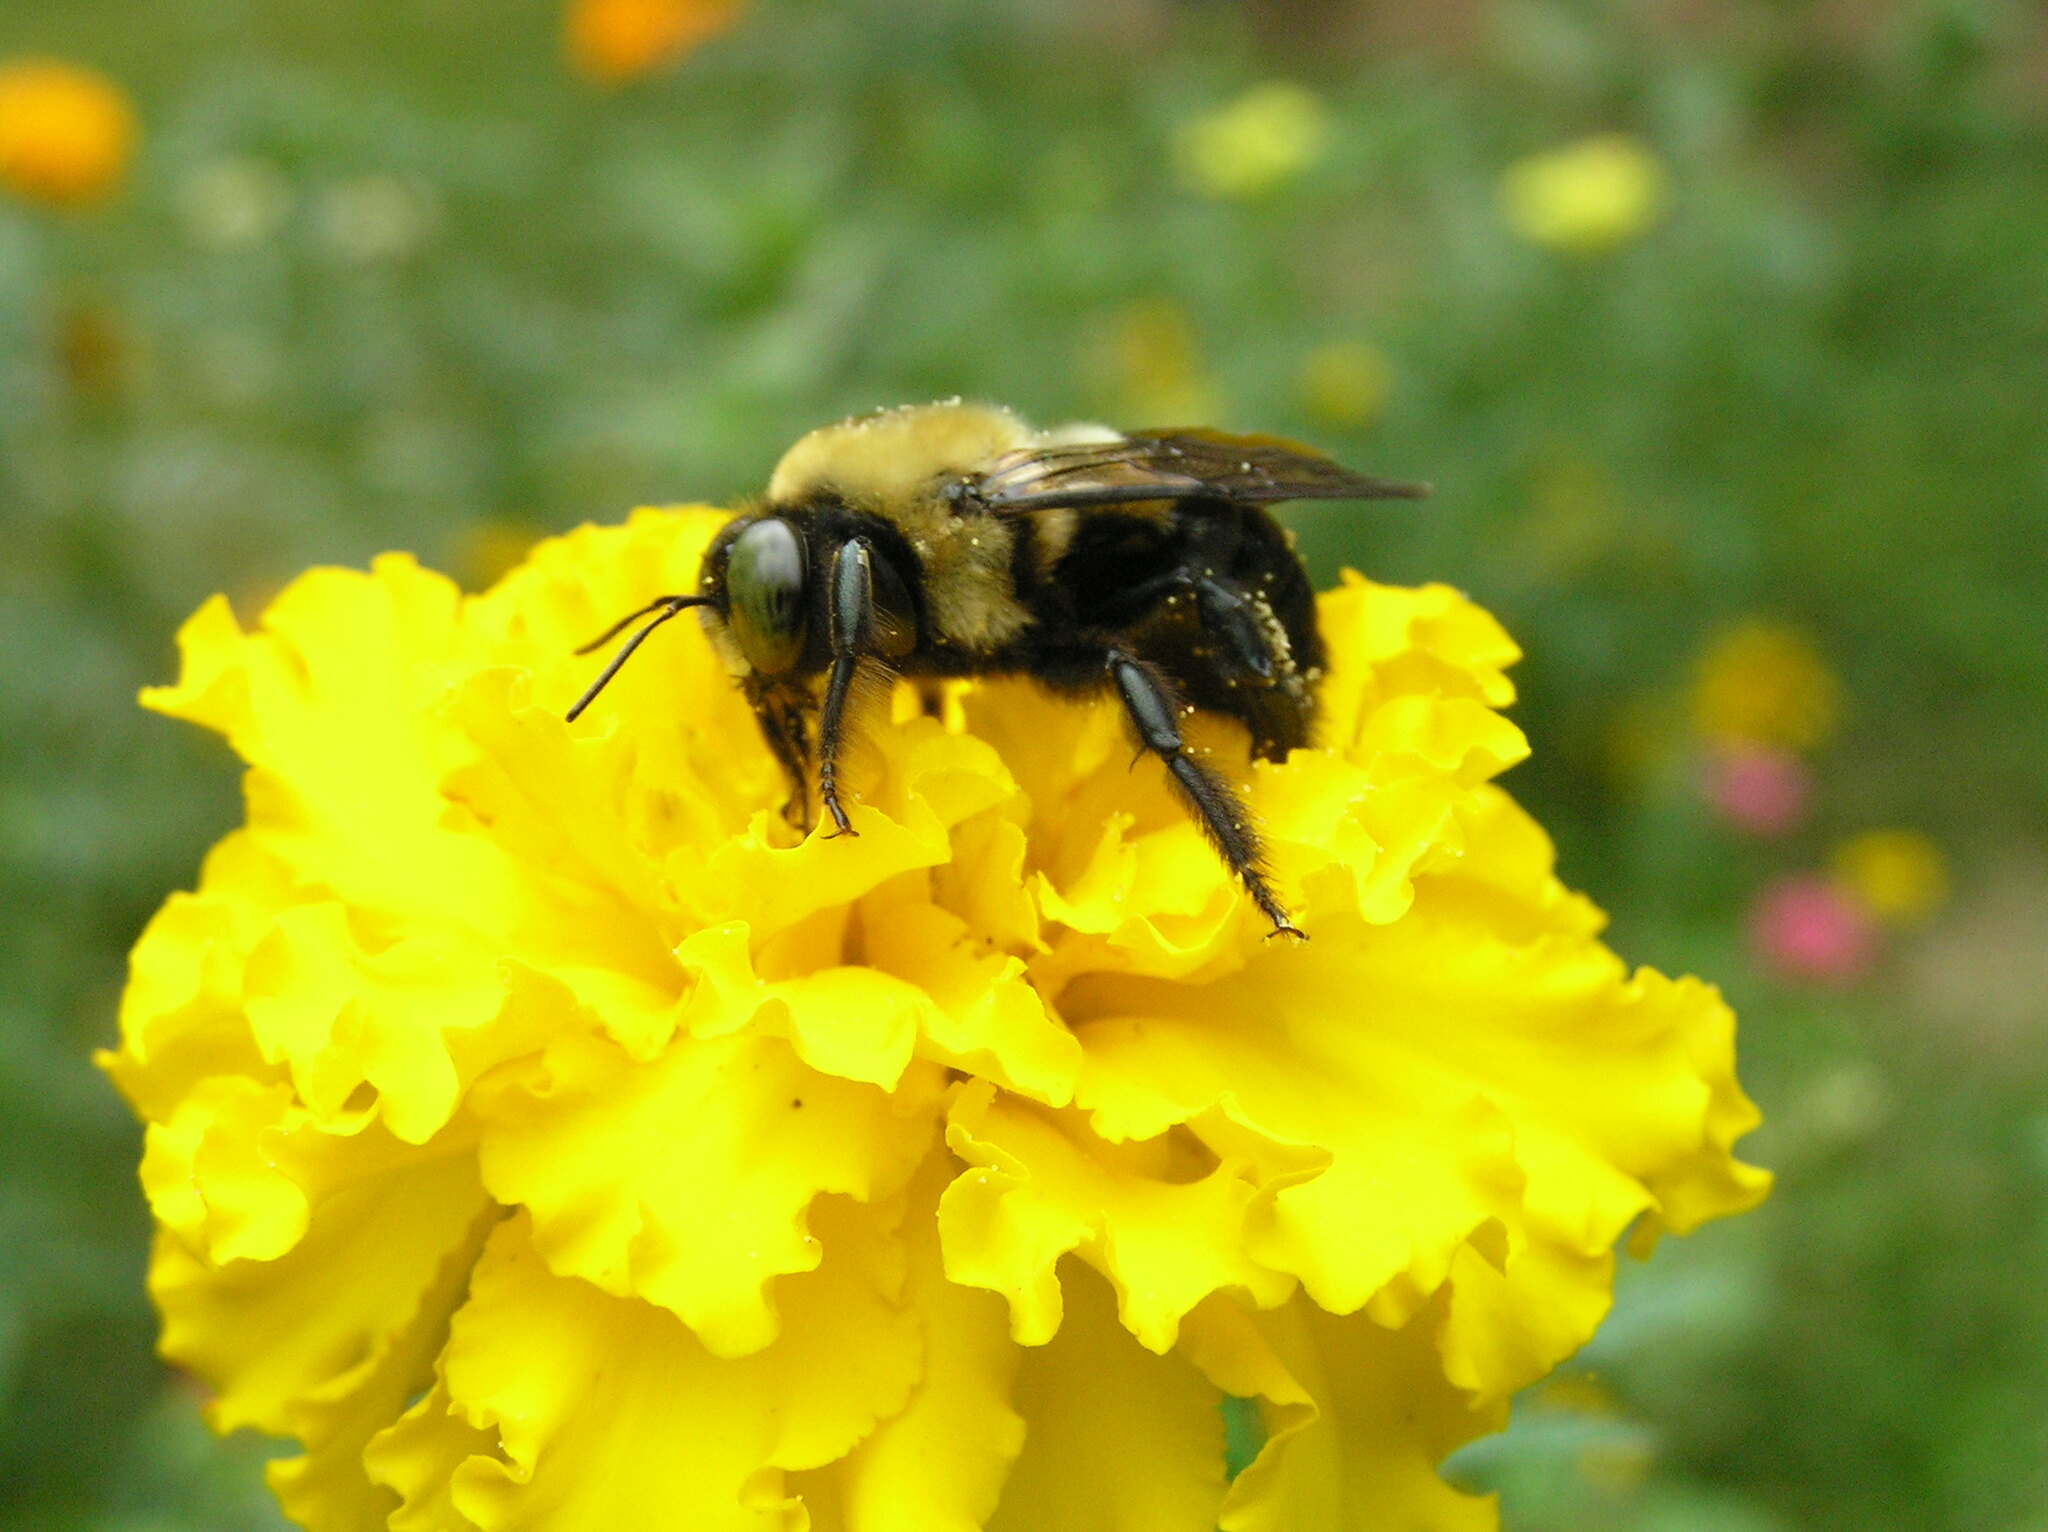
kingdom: Animalia
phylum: Arthropoda
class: Insecta
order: Hymenoptera
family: Apidae
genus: Xylocopa
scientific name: Xylocopa virginica
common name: Carpenter bee
